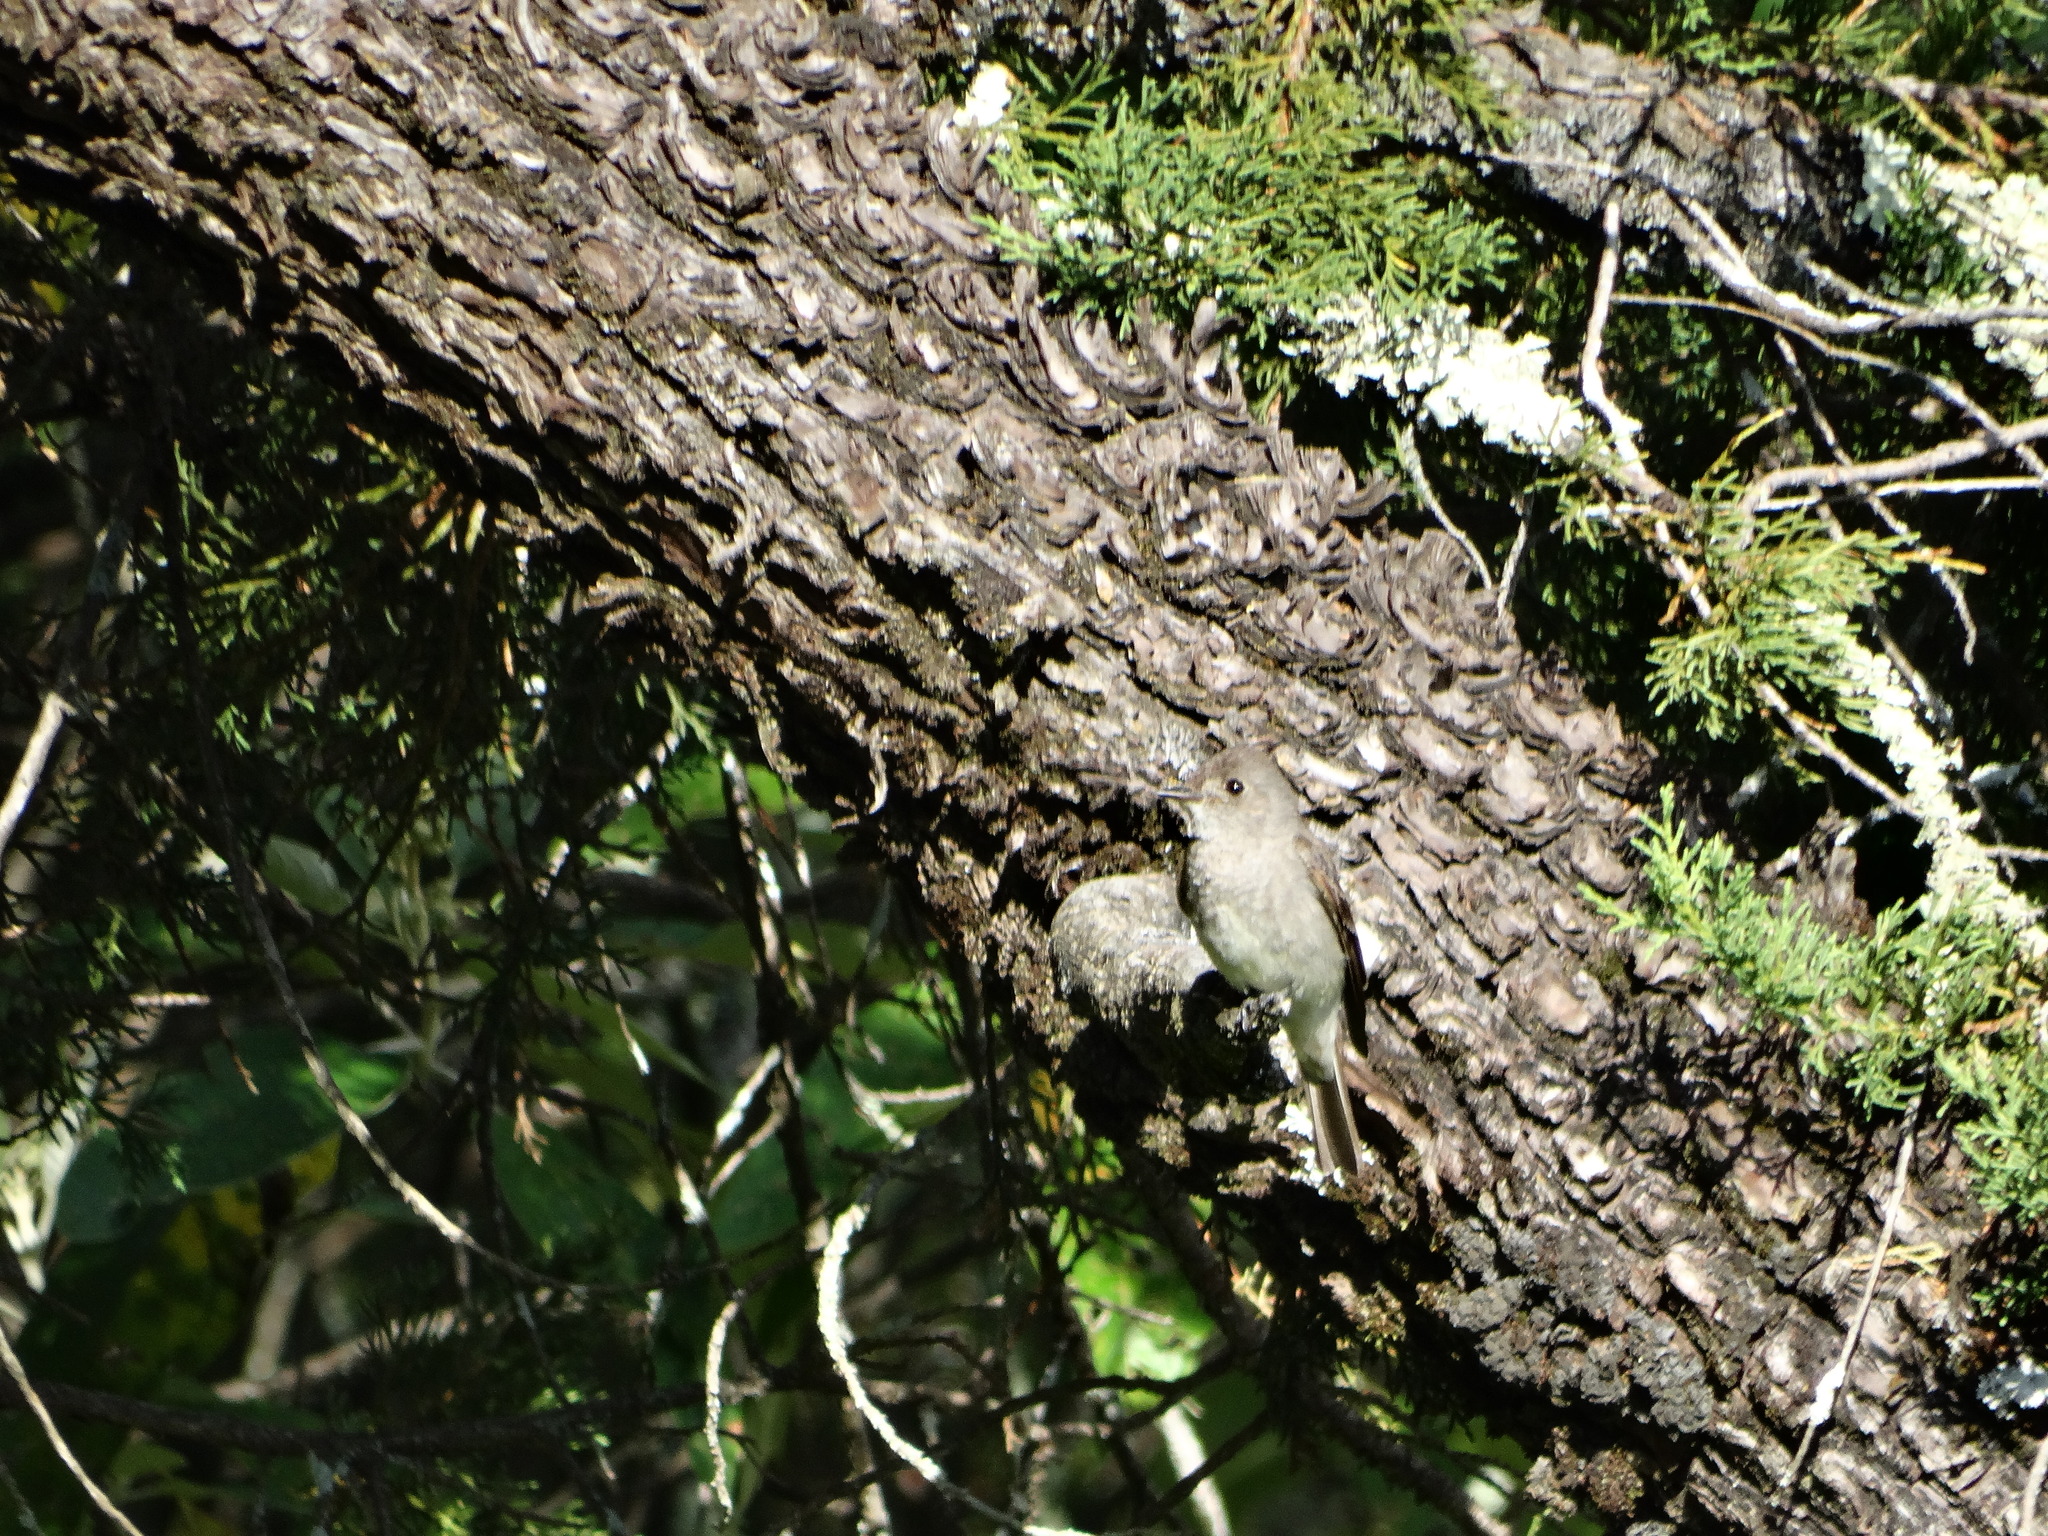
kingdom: Animalia
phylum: Chordata
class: Aves
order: Passeriformes
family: Tyrannidae
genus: Contopus
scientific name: Contopus sordidulus
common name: Western wood-pewee
